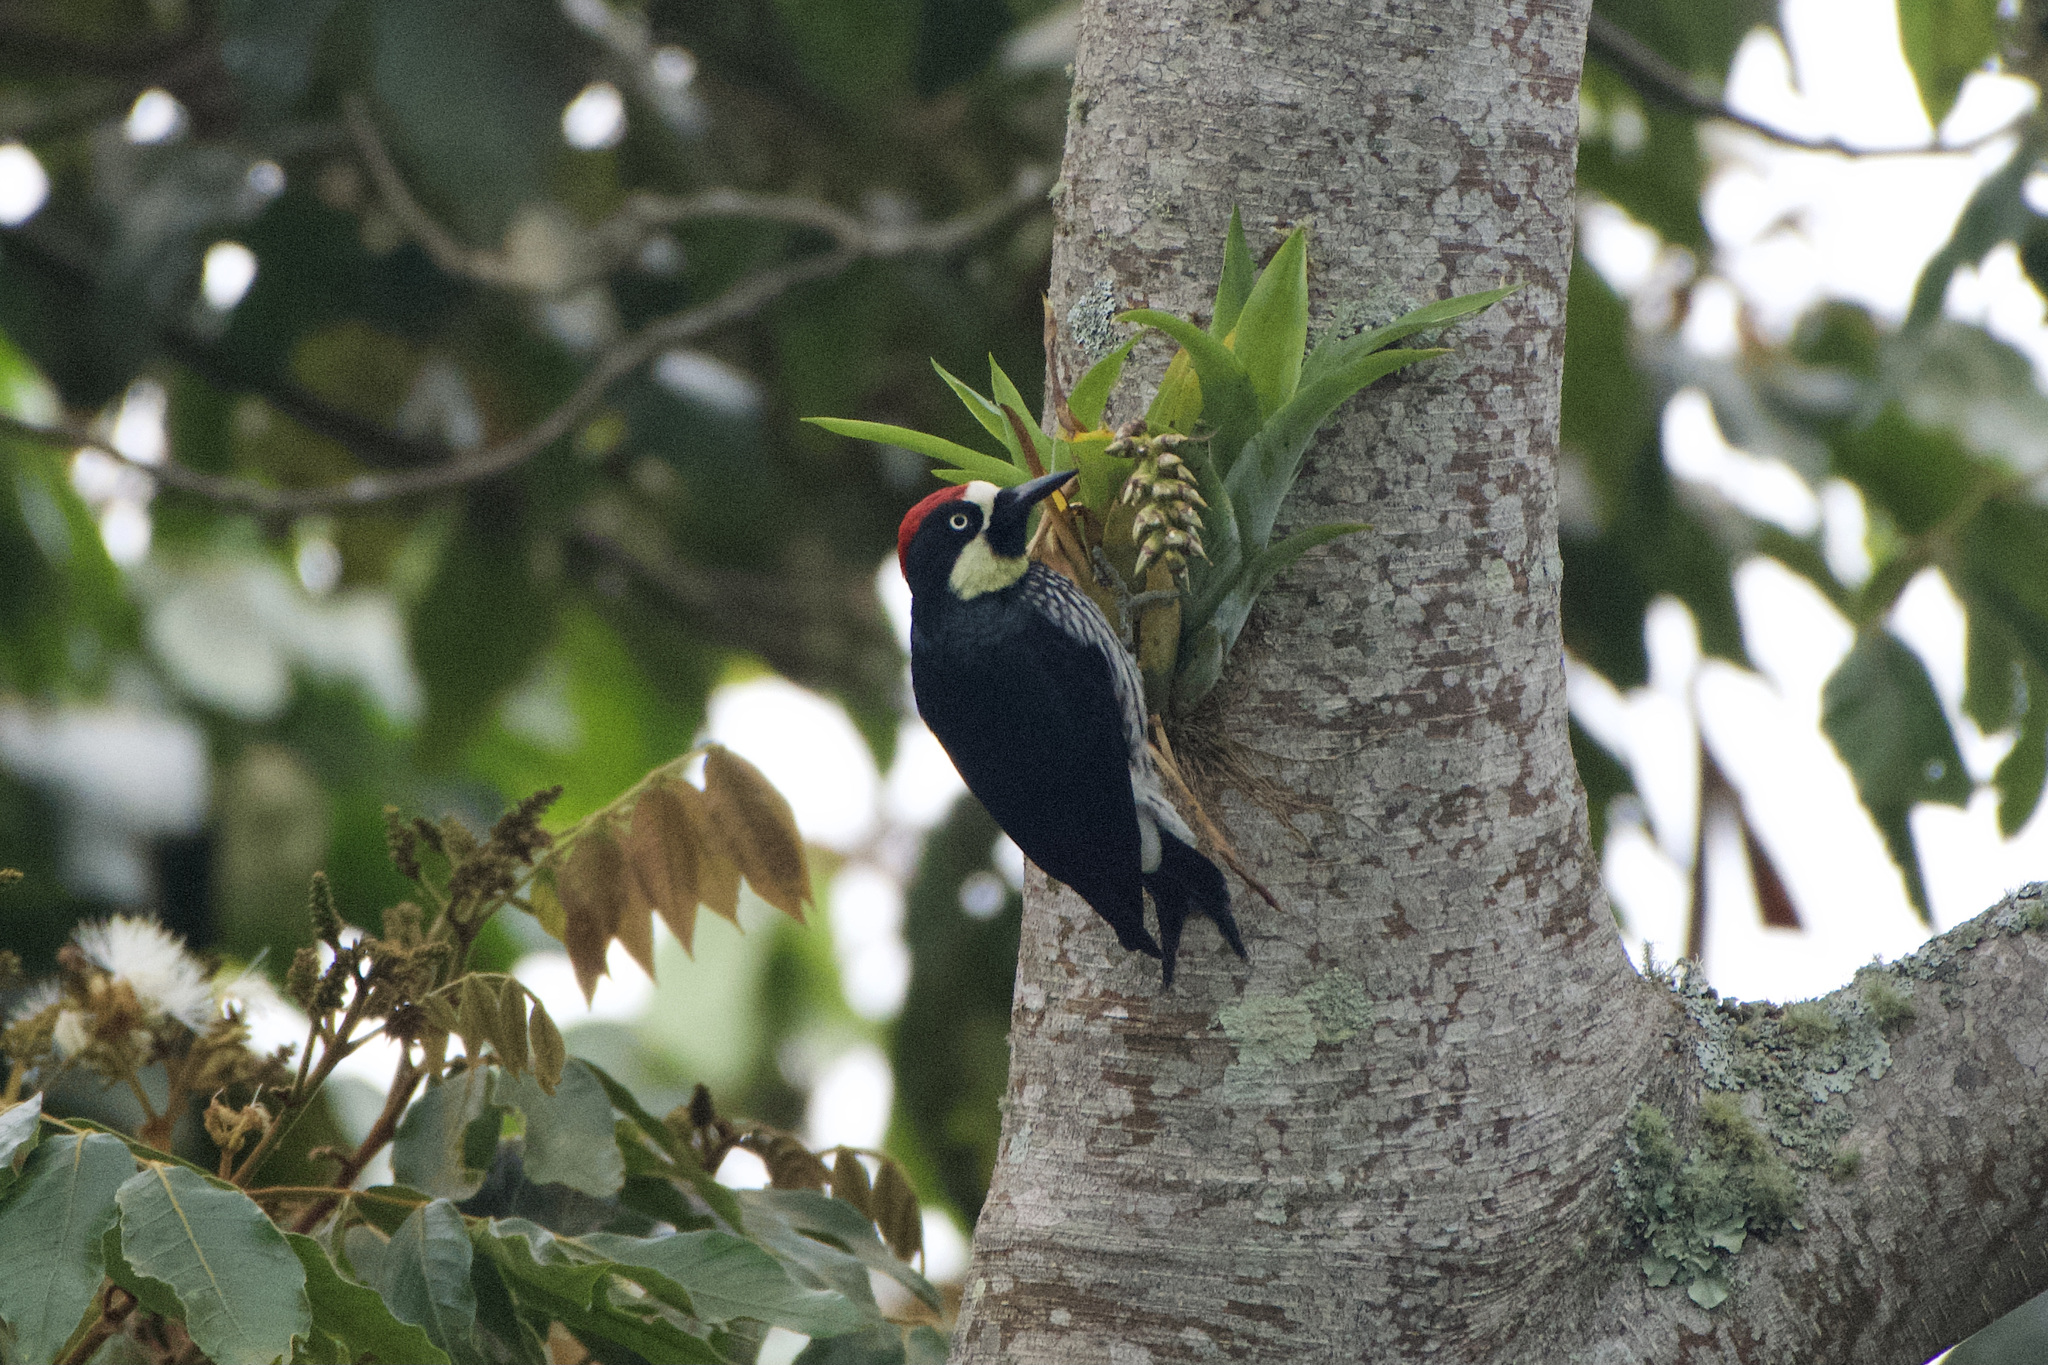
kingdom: Animalia
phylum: Chordata
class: Aves
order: Piciformes
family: Picidae
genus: Melanerpes
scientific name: Melanerpes formicivorus
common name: Acorn woodpecker
